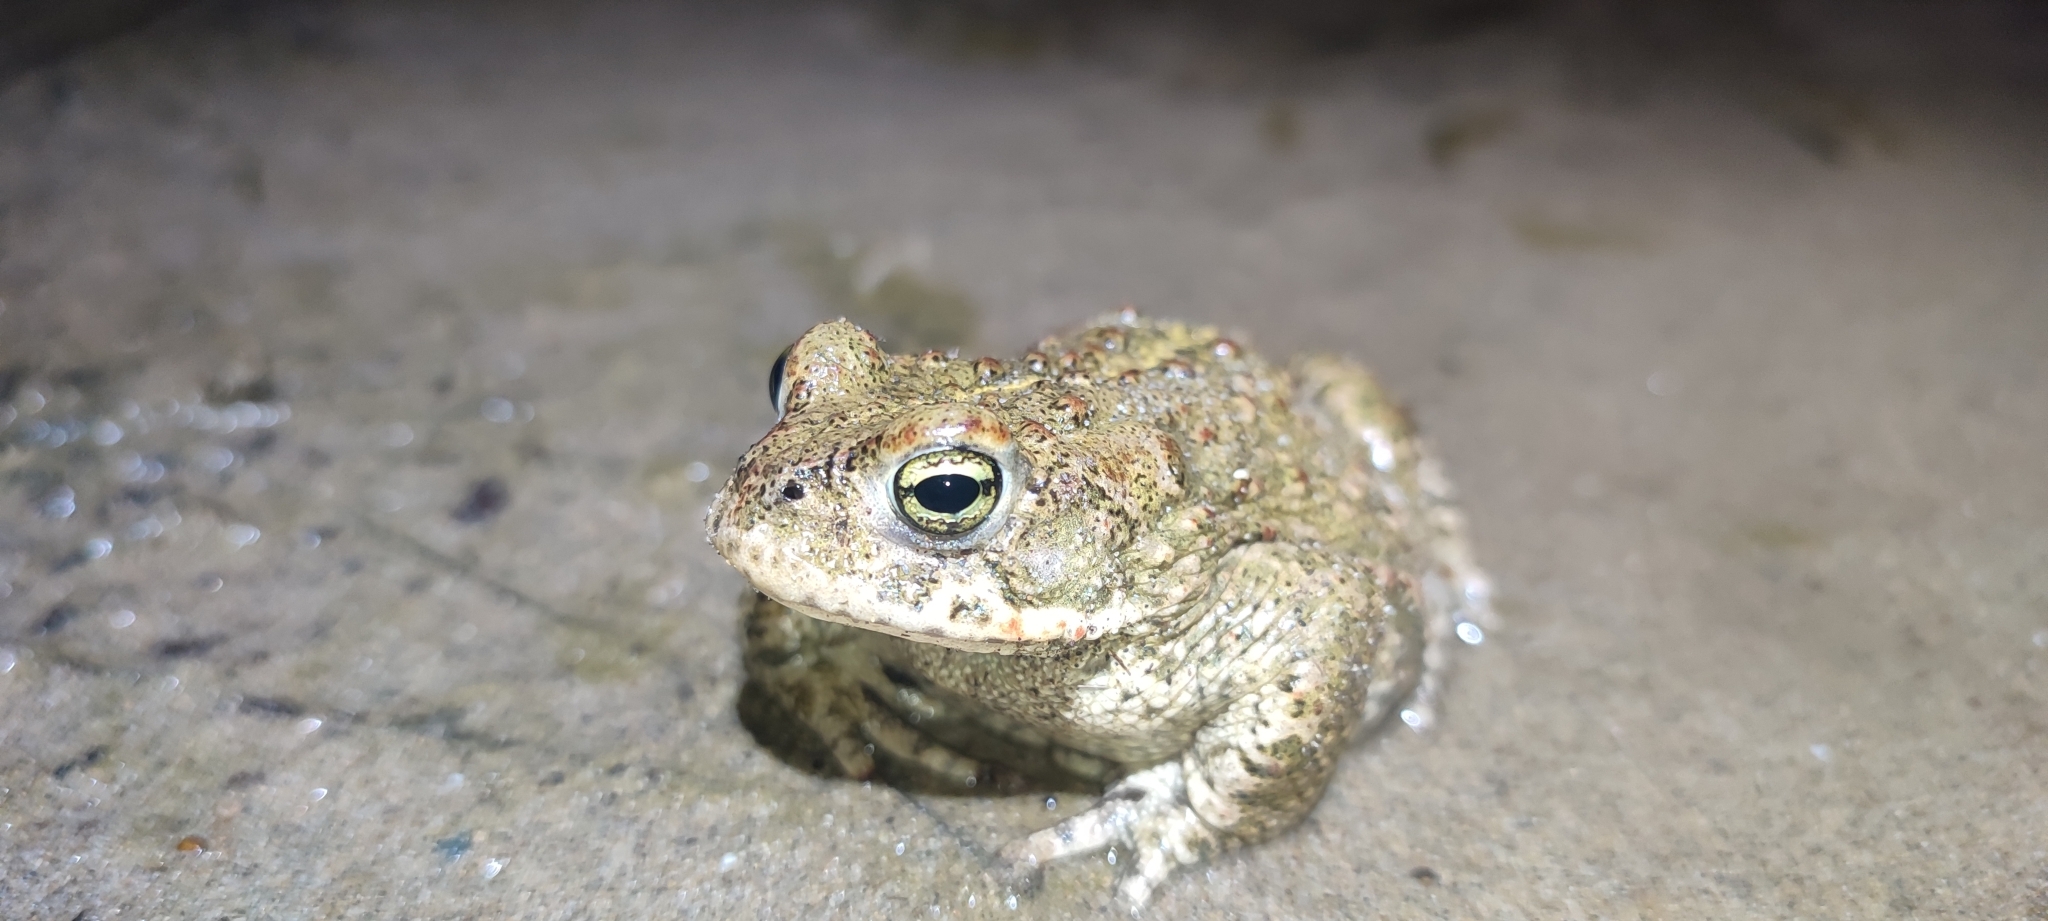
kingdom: Animalia
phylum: Chordata
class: Amphibia
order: Anura
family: Bufonidae
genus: Epidalea
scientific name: Epidalea calamita
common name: Natterjack toad
